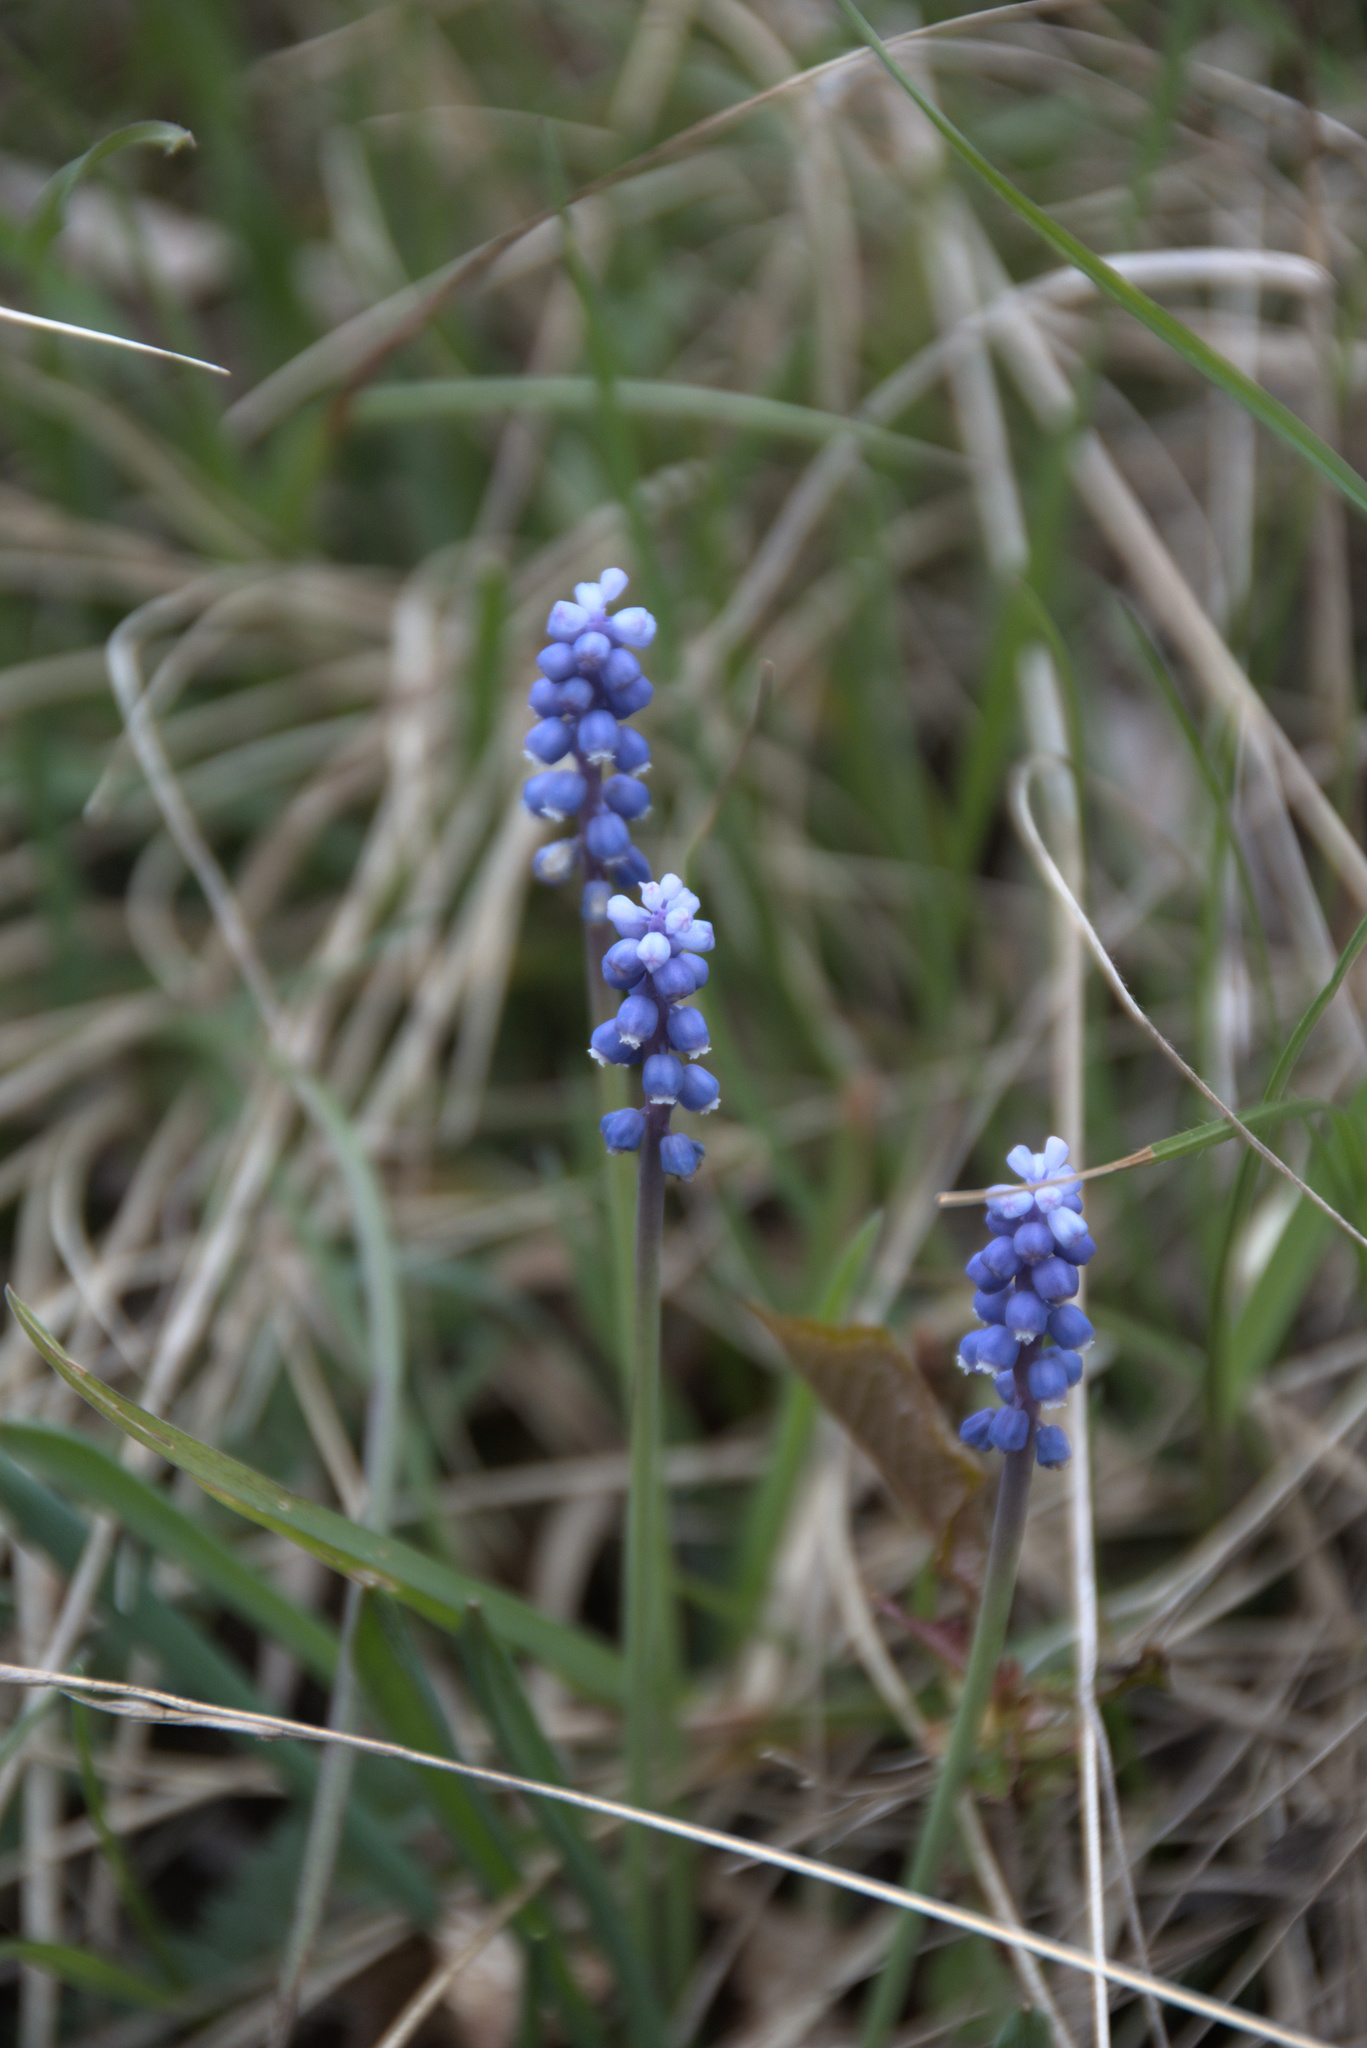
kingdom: Plantae
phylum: Tracheophyta
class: Liliopsida
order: Asparagales
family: Asparagaceae
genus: Muscari
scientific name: Muscari botryoides
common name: Compact grape-hyacinth
